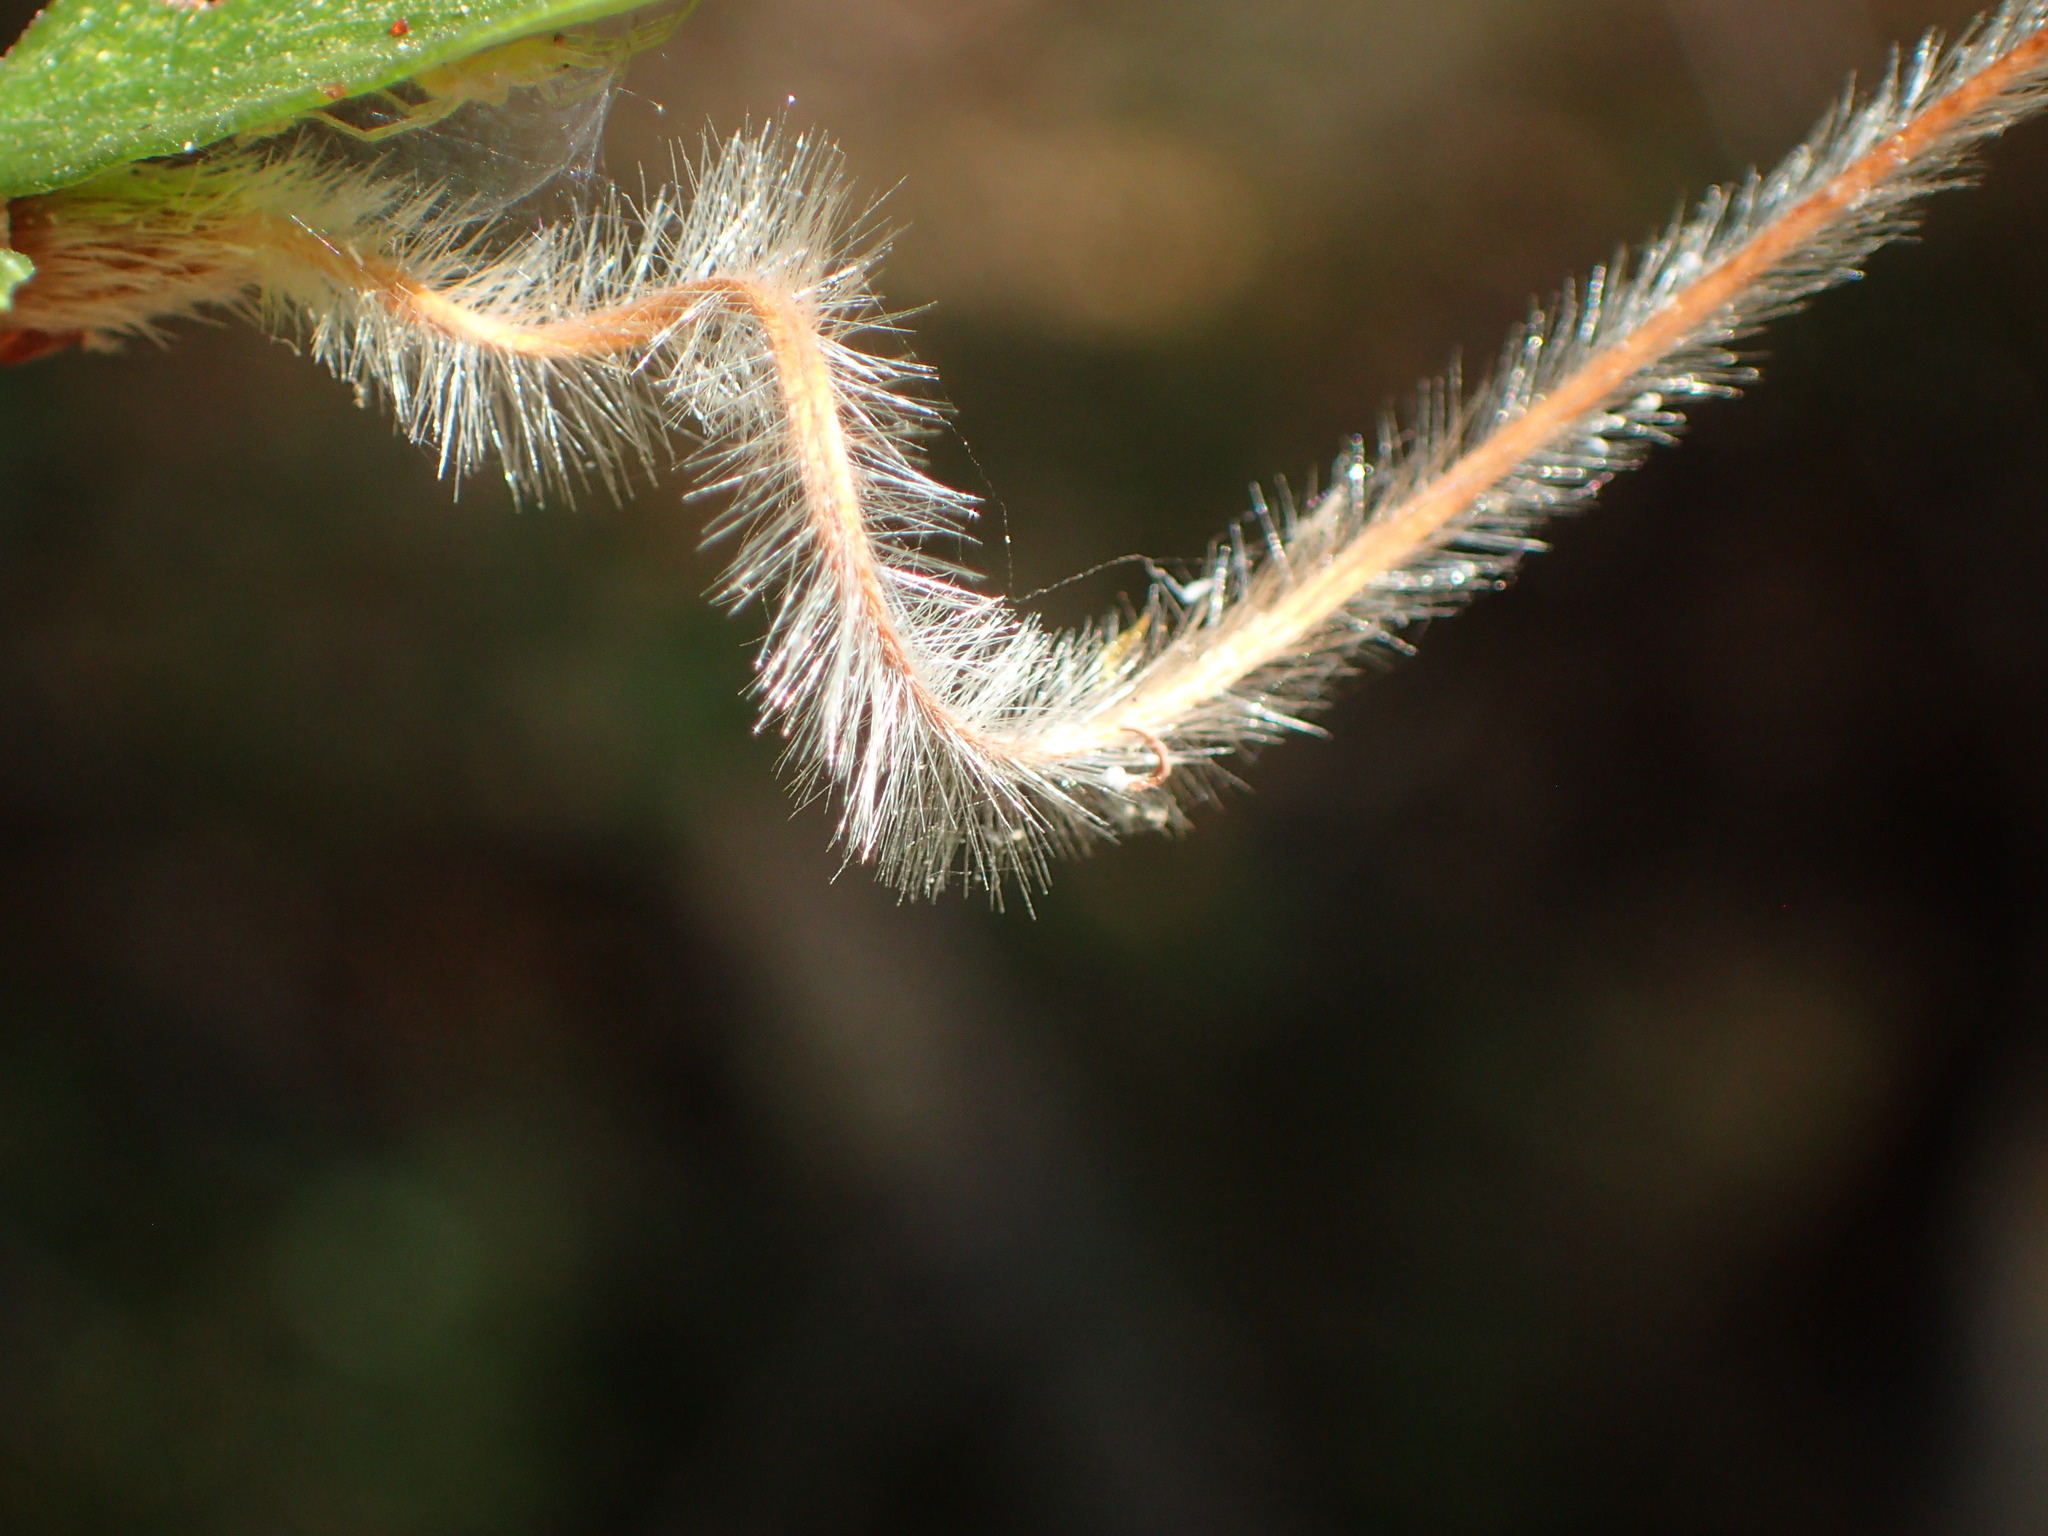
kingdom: Plantae
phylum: Tracheophyta
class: Magnoliopsida
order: Rosales
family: Rosaceae
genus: Cercocarpus
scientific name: Cercocarpus betuloides
